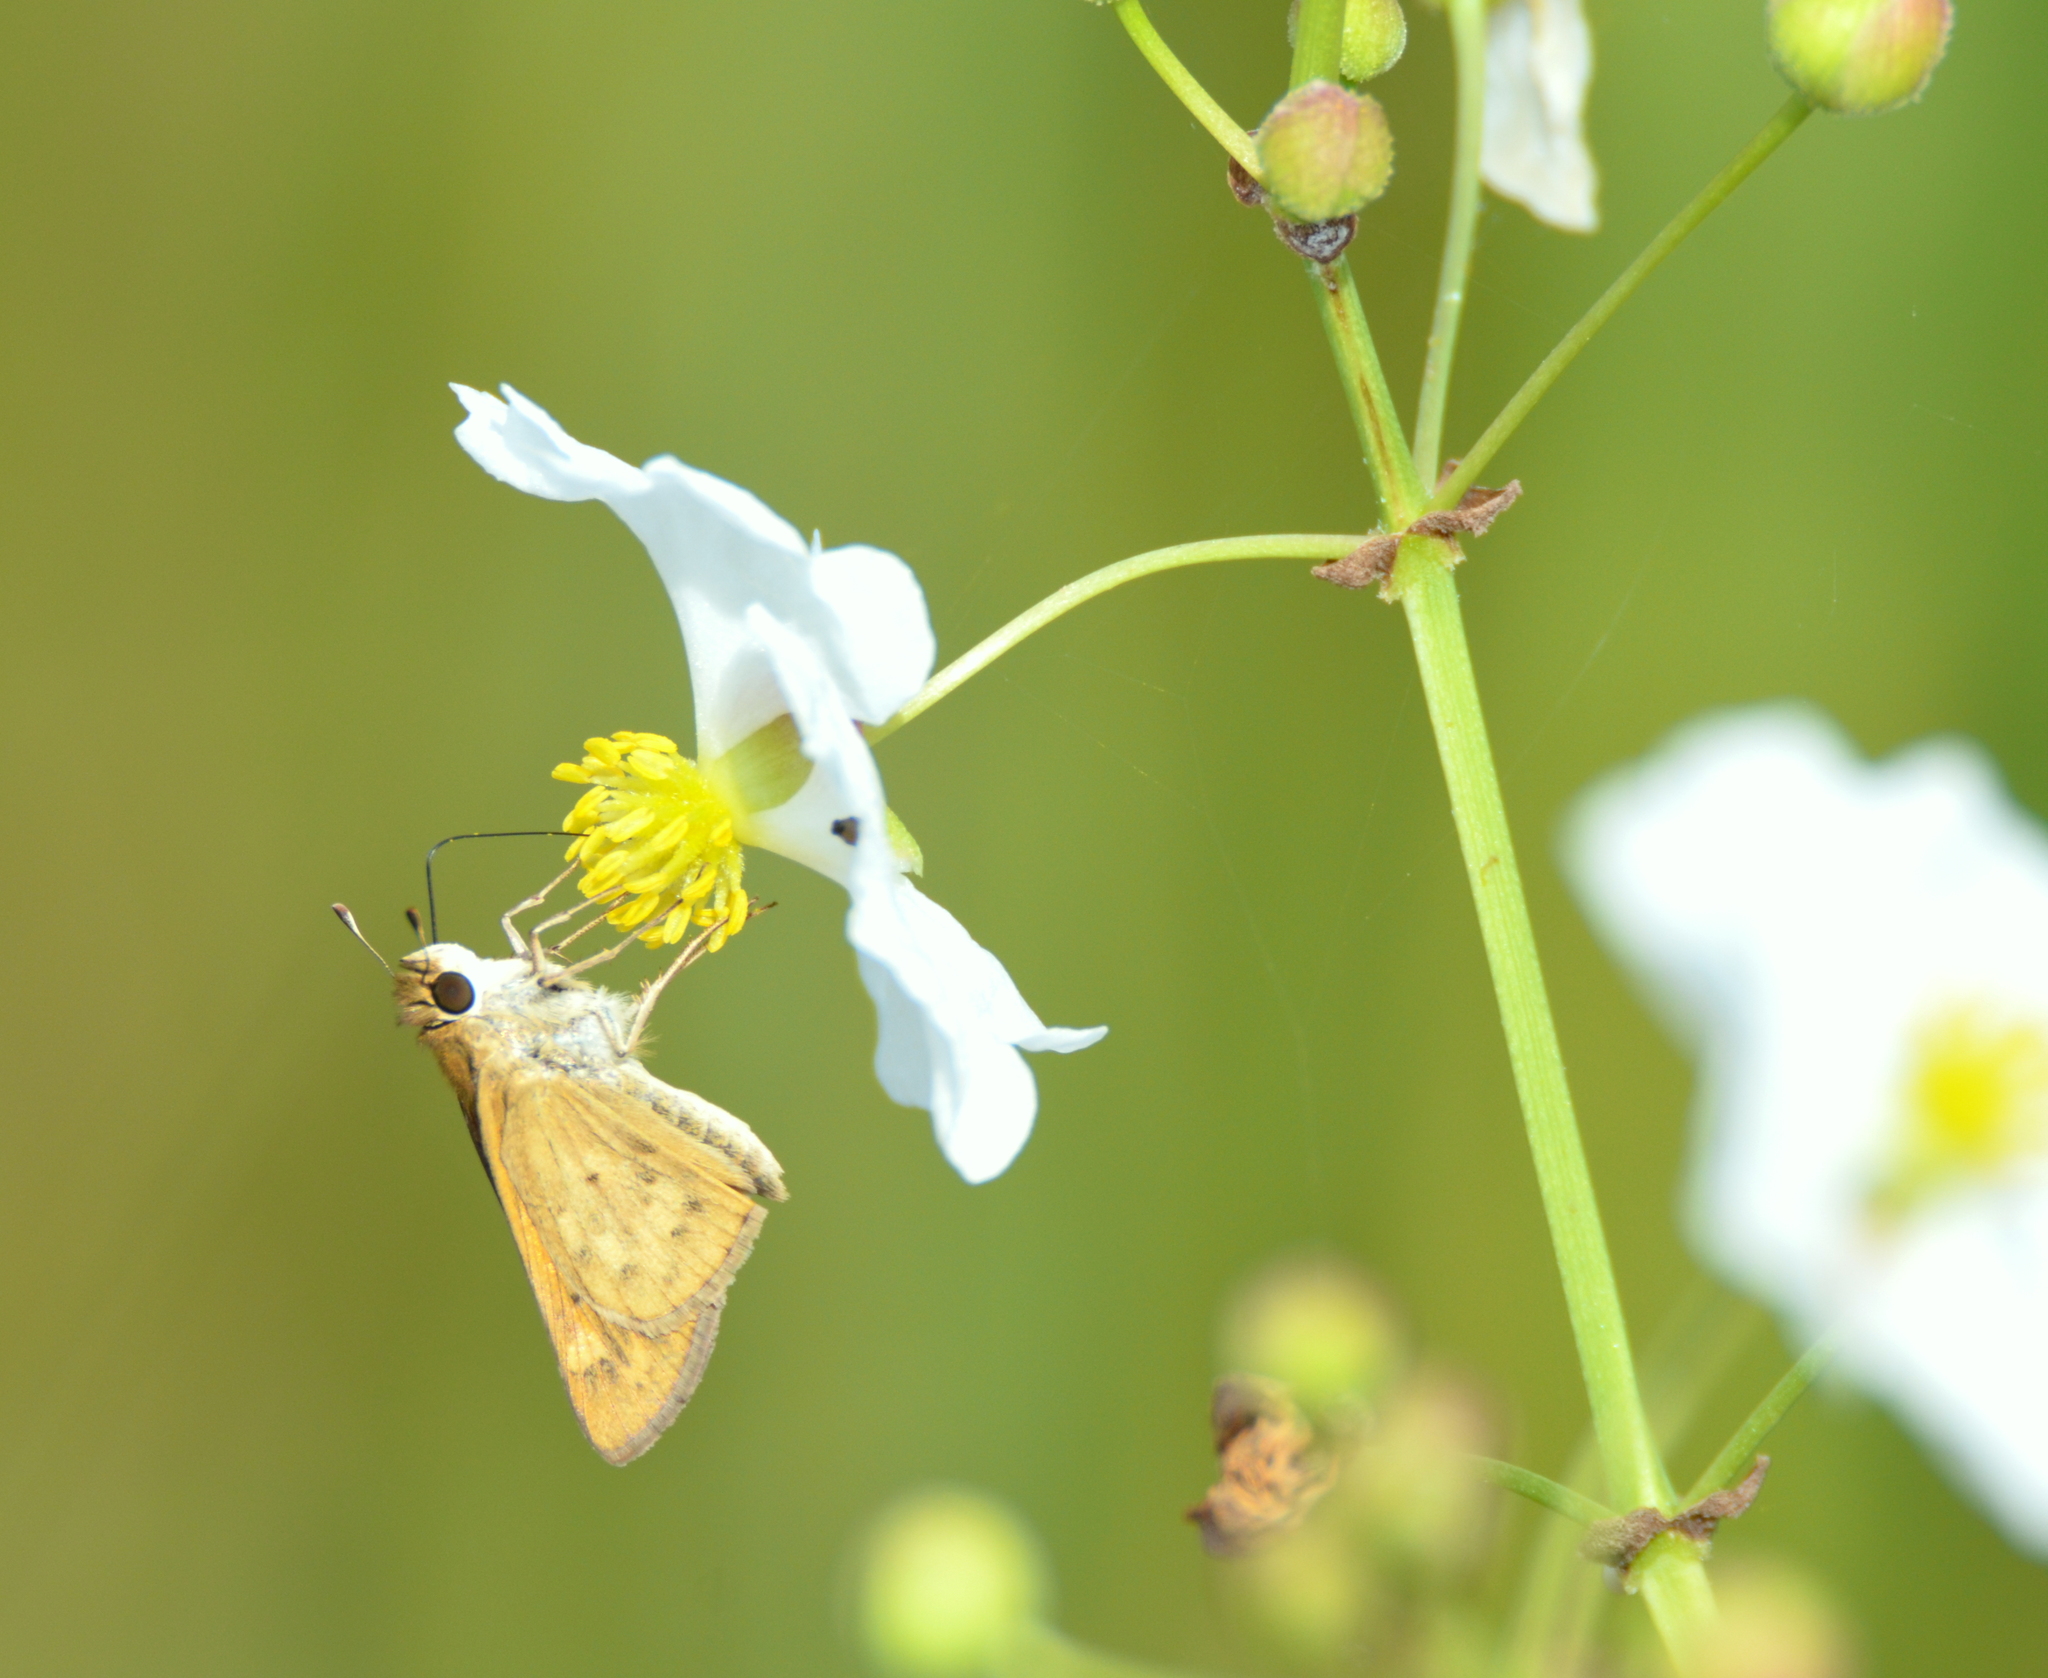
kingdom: Animalia
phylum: Arthropoda
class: Insecta
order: Lepidoptera
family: Hesperiidae
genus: Hylephila
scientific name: Hylephila phyleus
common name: Fiery skipper
